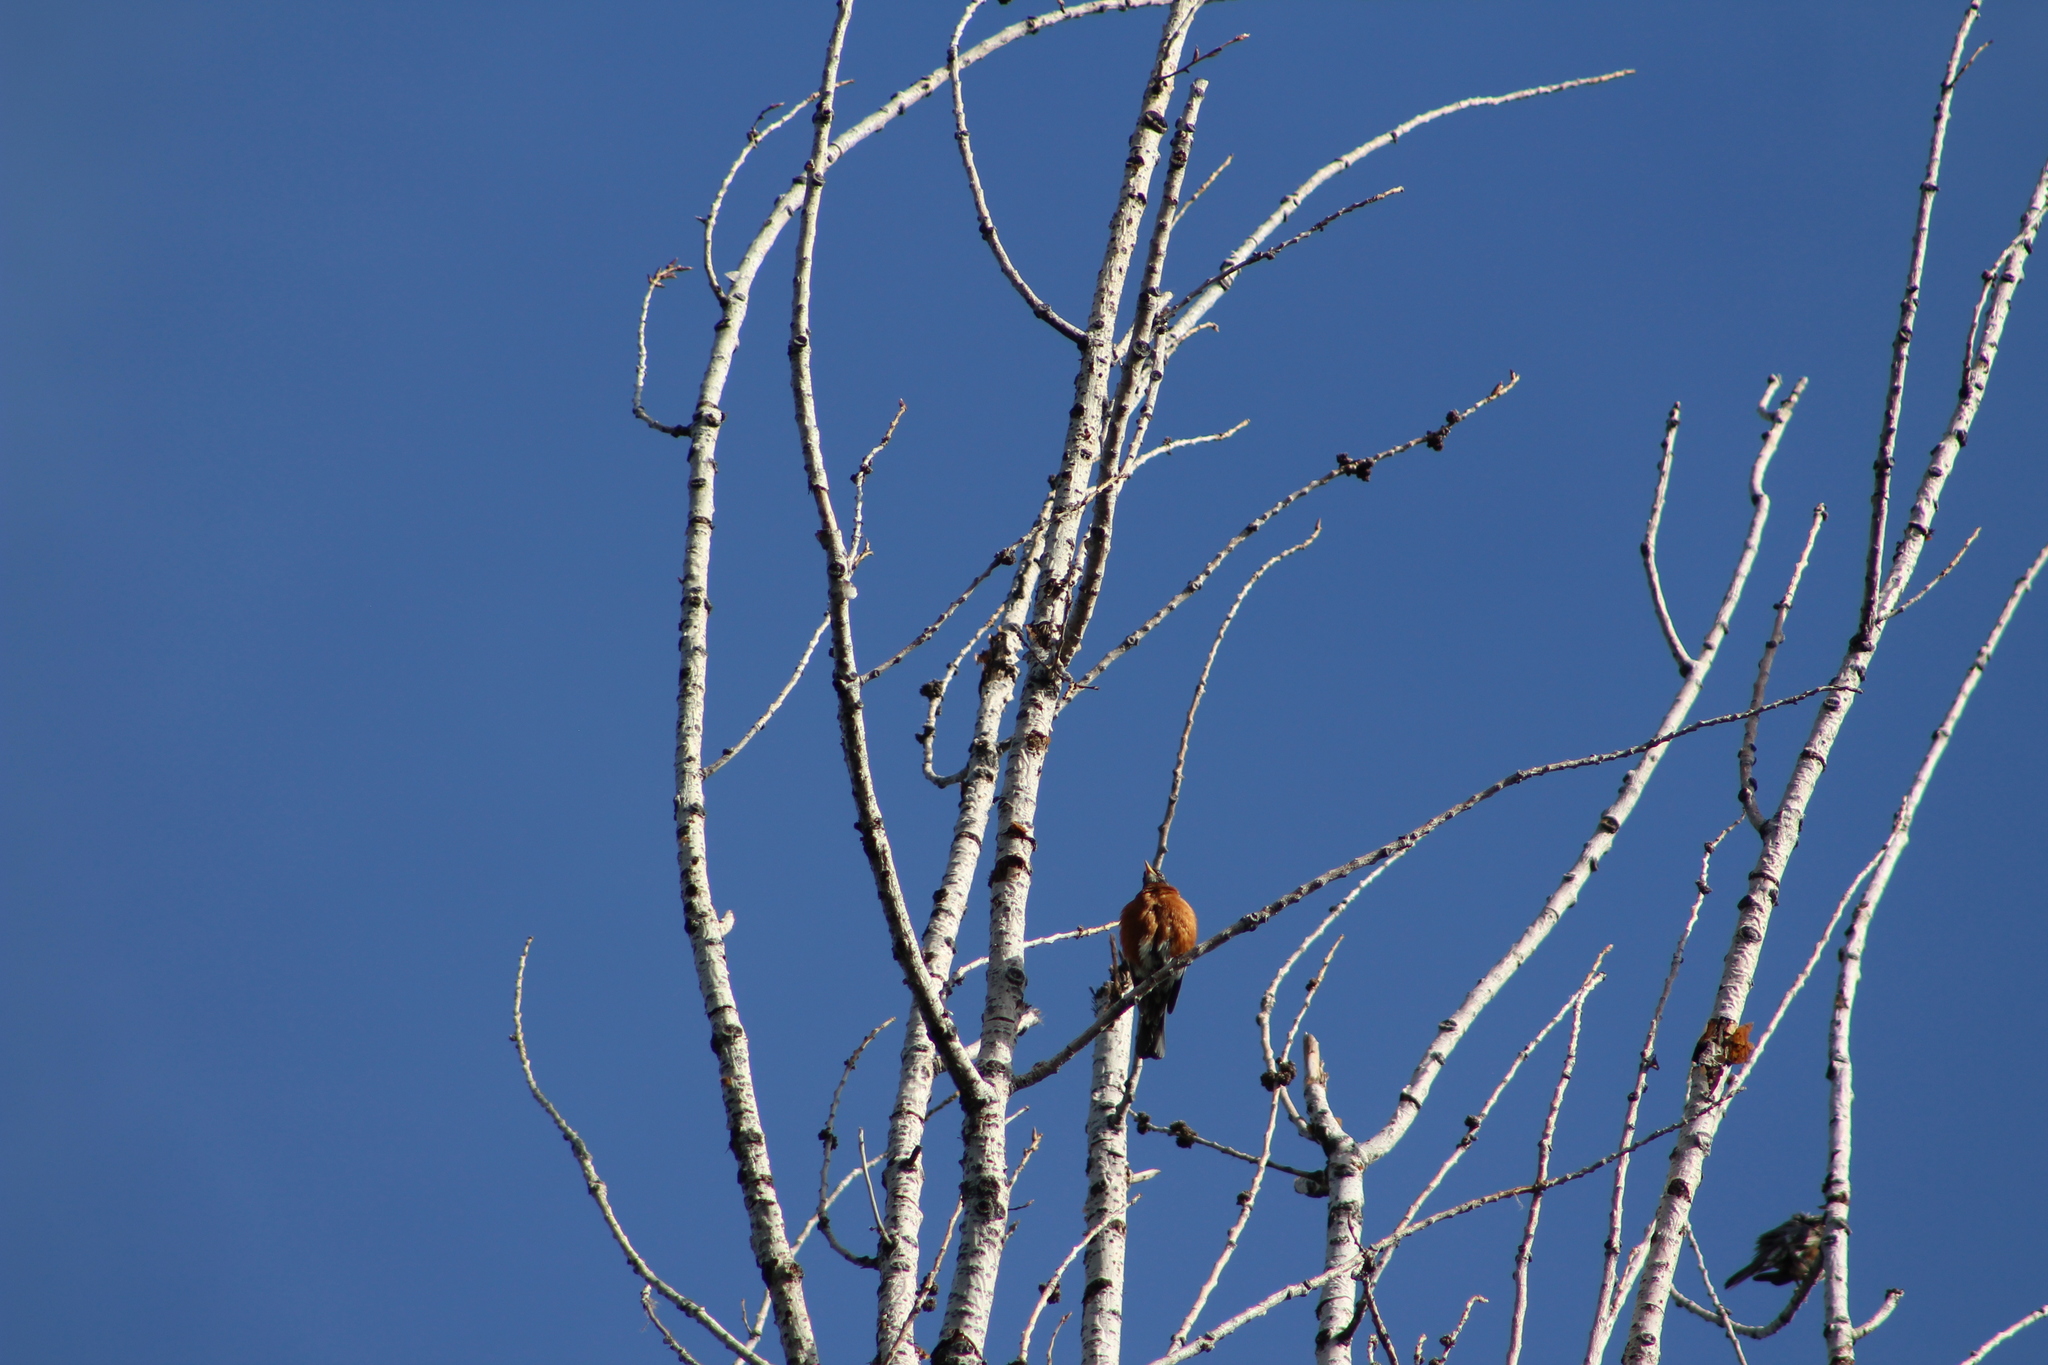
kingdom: Animalia
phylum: Chordata
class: Aves
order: Passeriformes
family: Turdidae
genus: Turdus
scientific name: Turdus migratorius
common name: American robin
